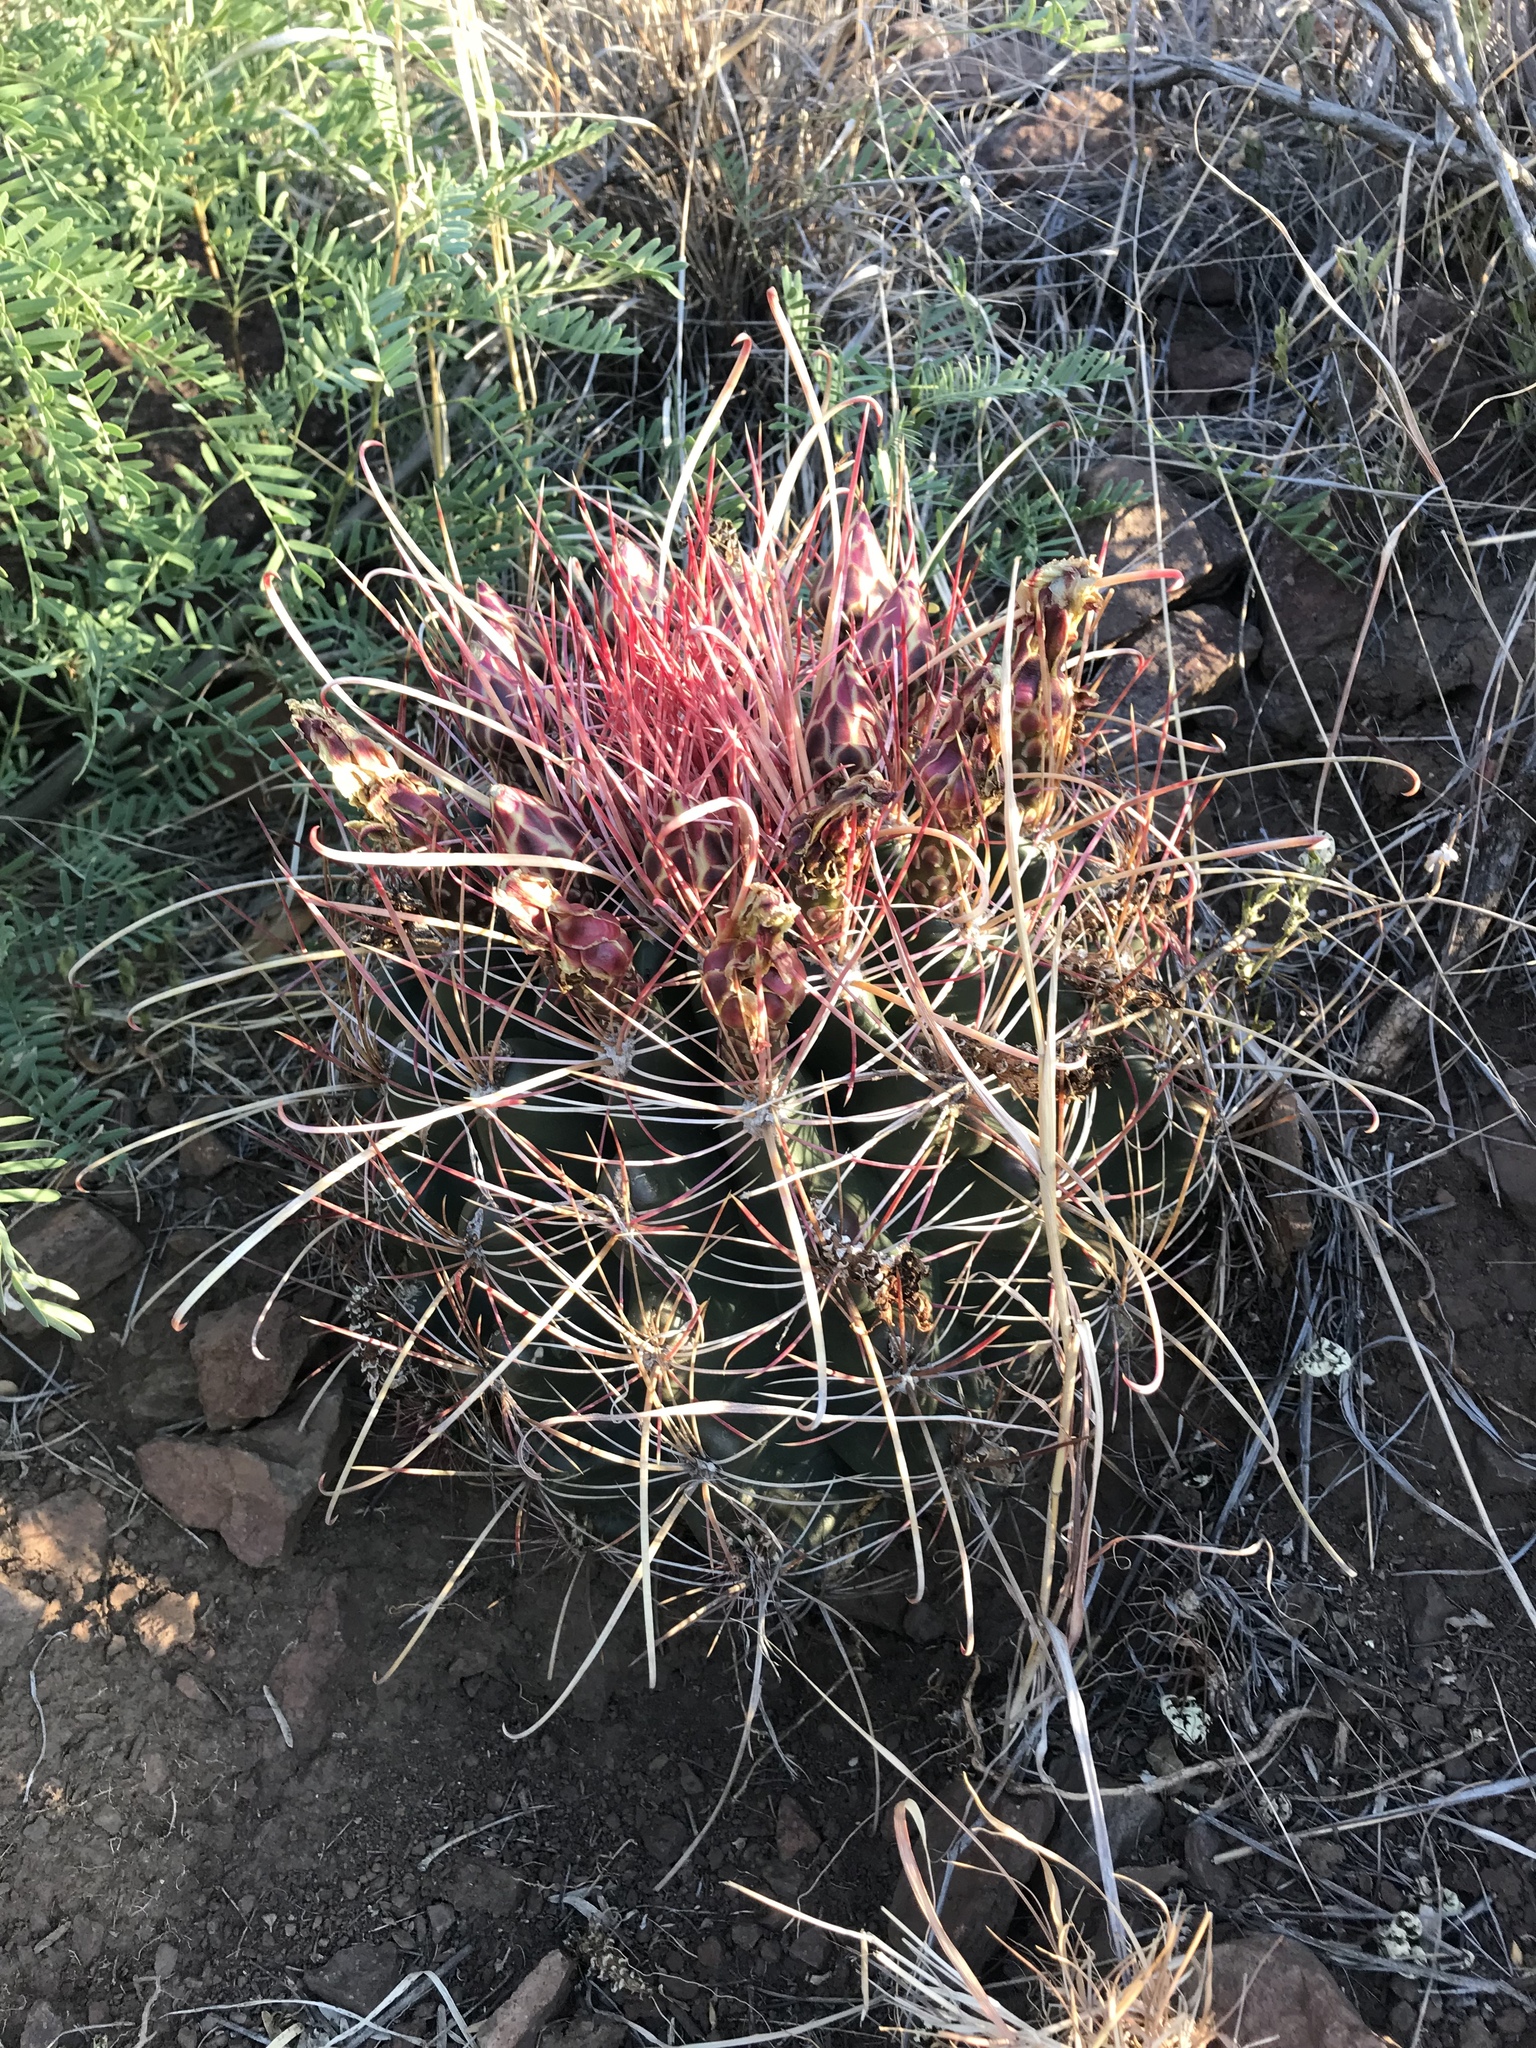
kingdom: Plantae
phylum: Tracheophyta
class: Magnoliopsida
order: Caryophyllales
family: Cactaceae
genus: Bisnaga
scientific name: Bisnaga hamatacantha
